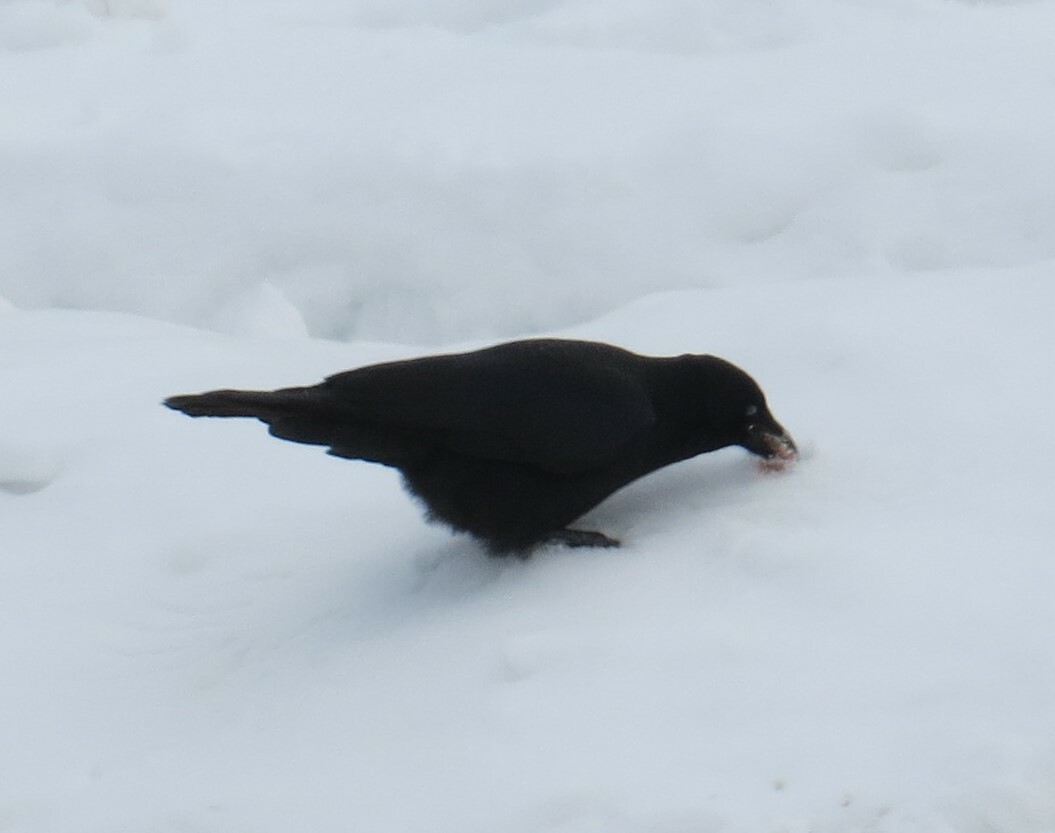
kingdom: Animalia
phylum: Chordata
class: Aves
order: Passeriformes
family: Corvidae
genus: Corvus
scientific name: Corvus brachyrhynchos
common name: American crow
